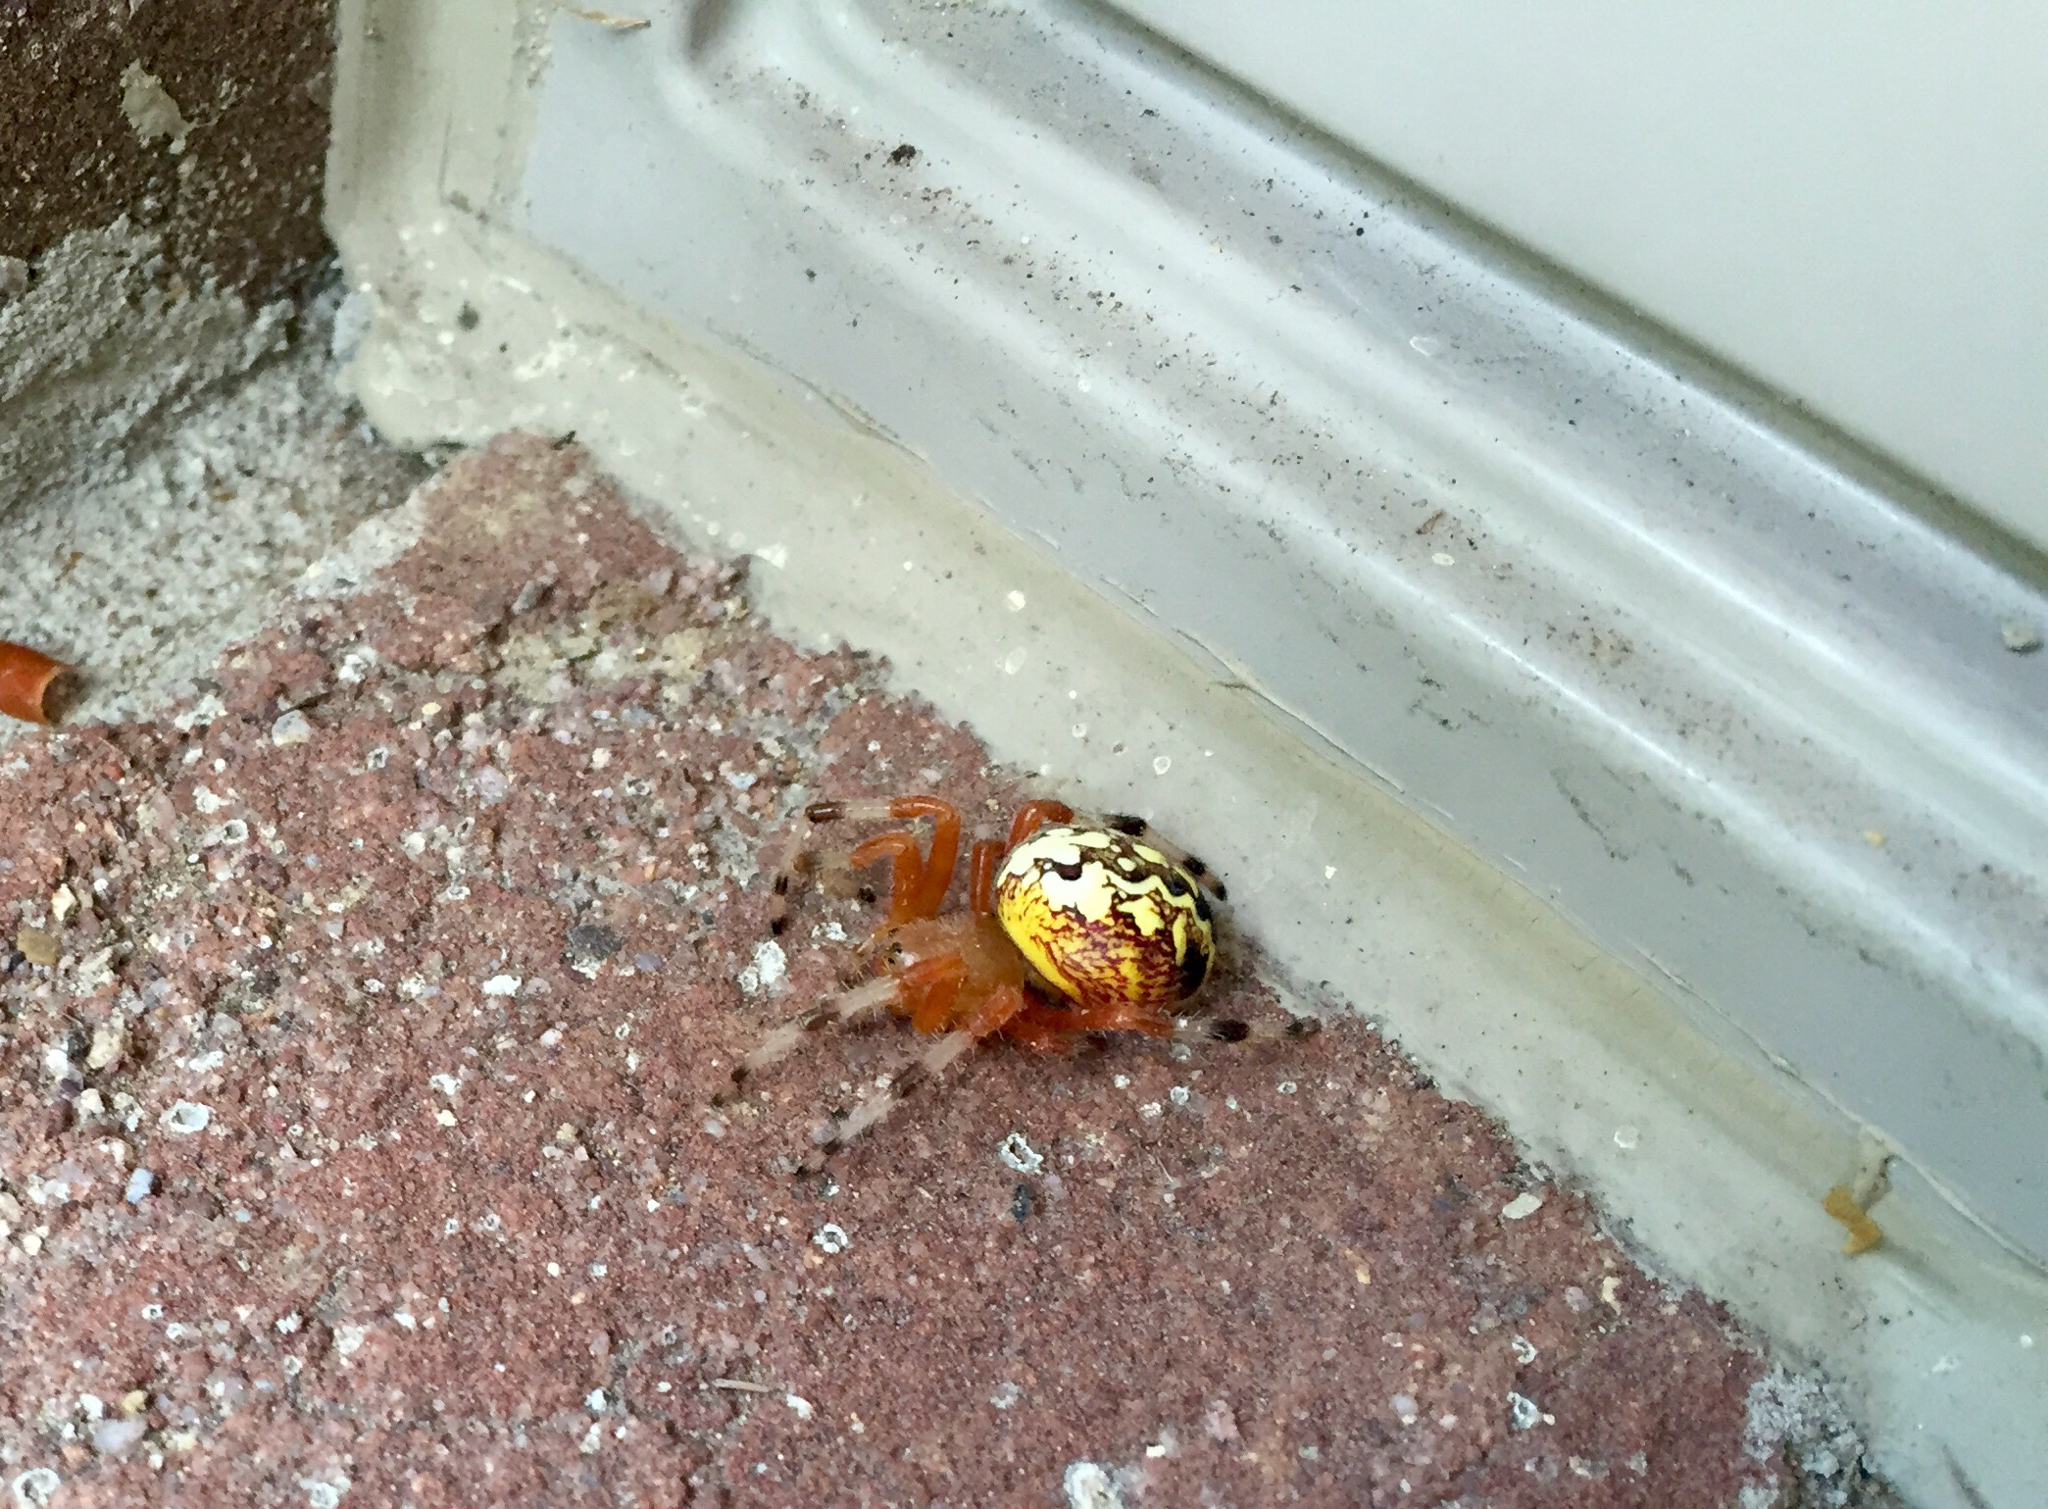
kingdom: Animalia
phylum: Arthropoda
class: Arachnida
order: Araneae
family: Araneidae
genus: Araneus
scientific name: Araneus marmoreus
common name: Marbled orbweaver
